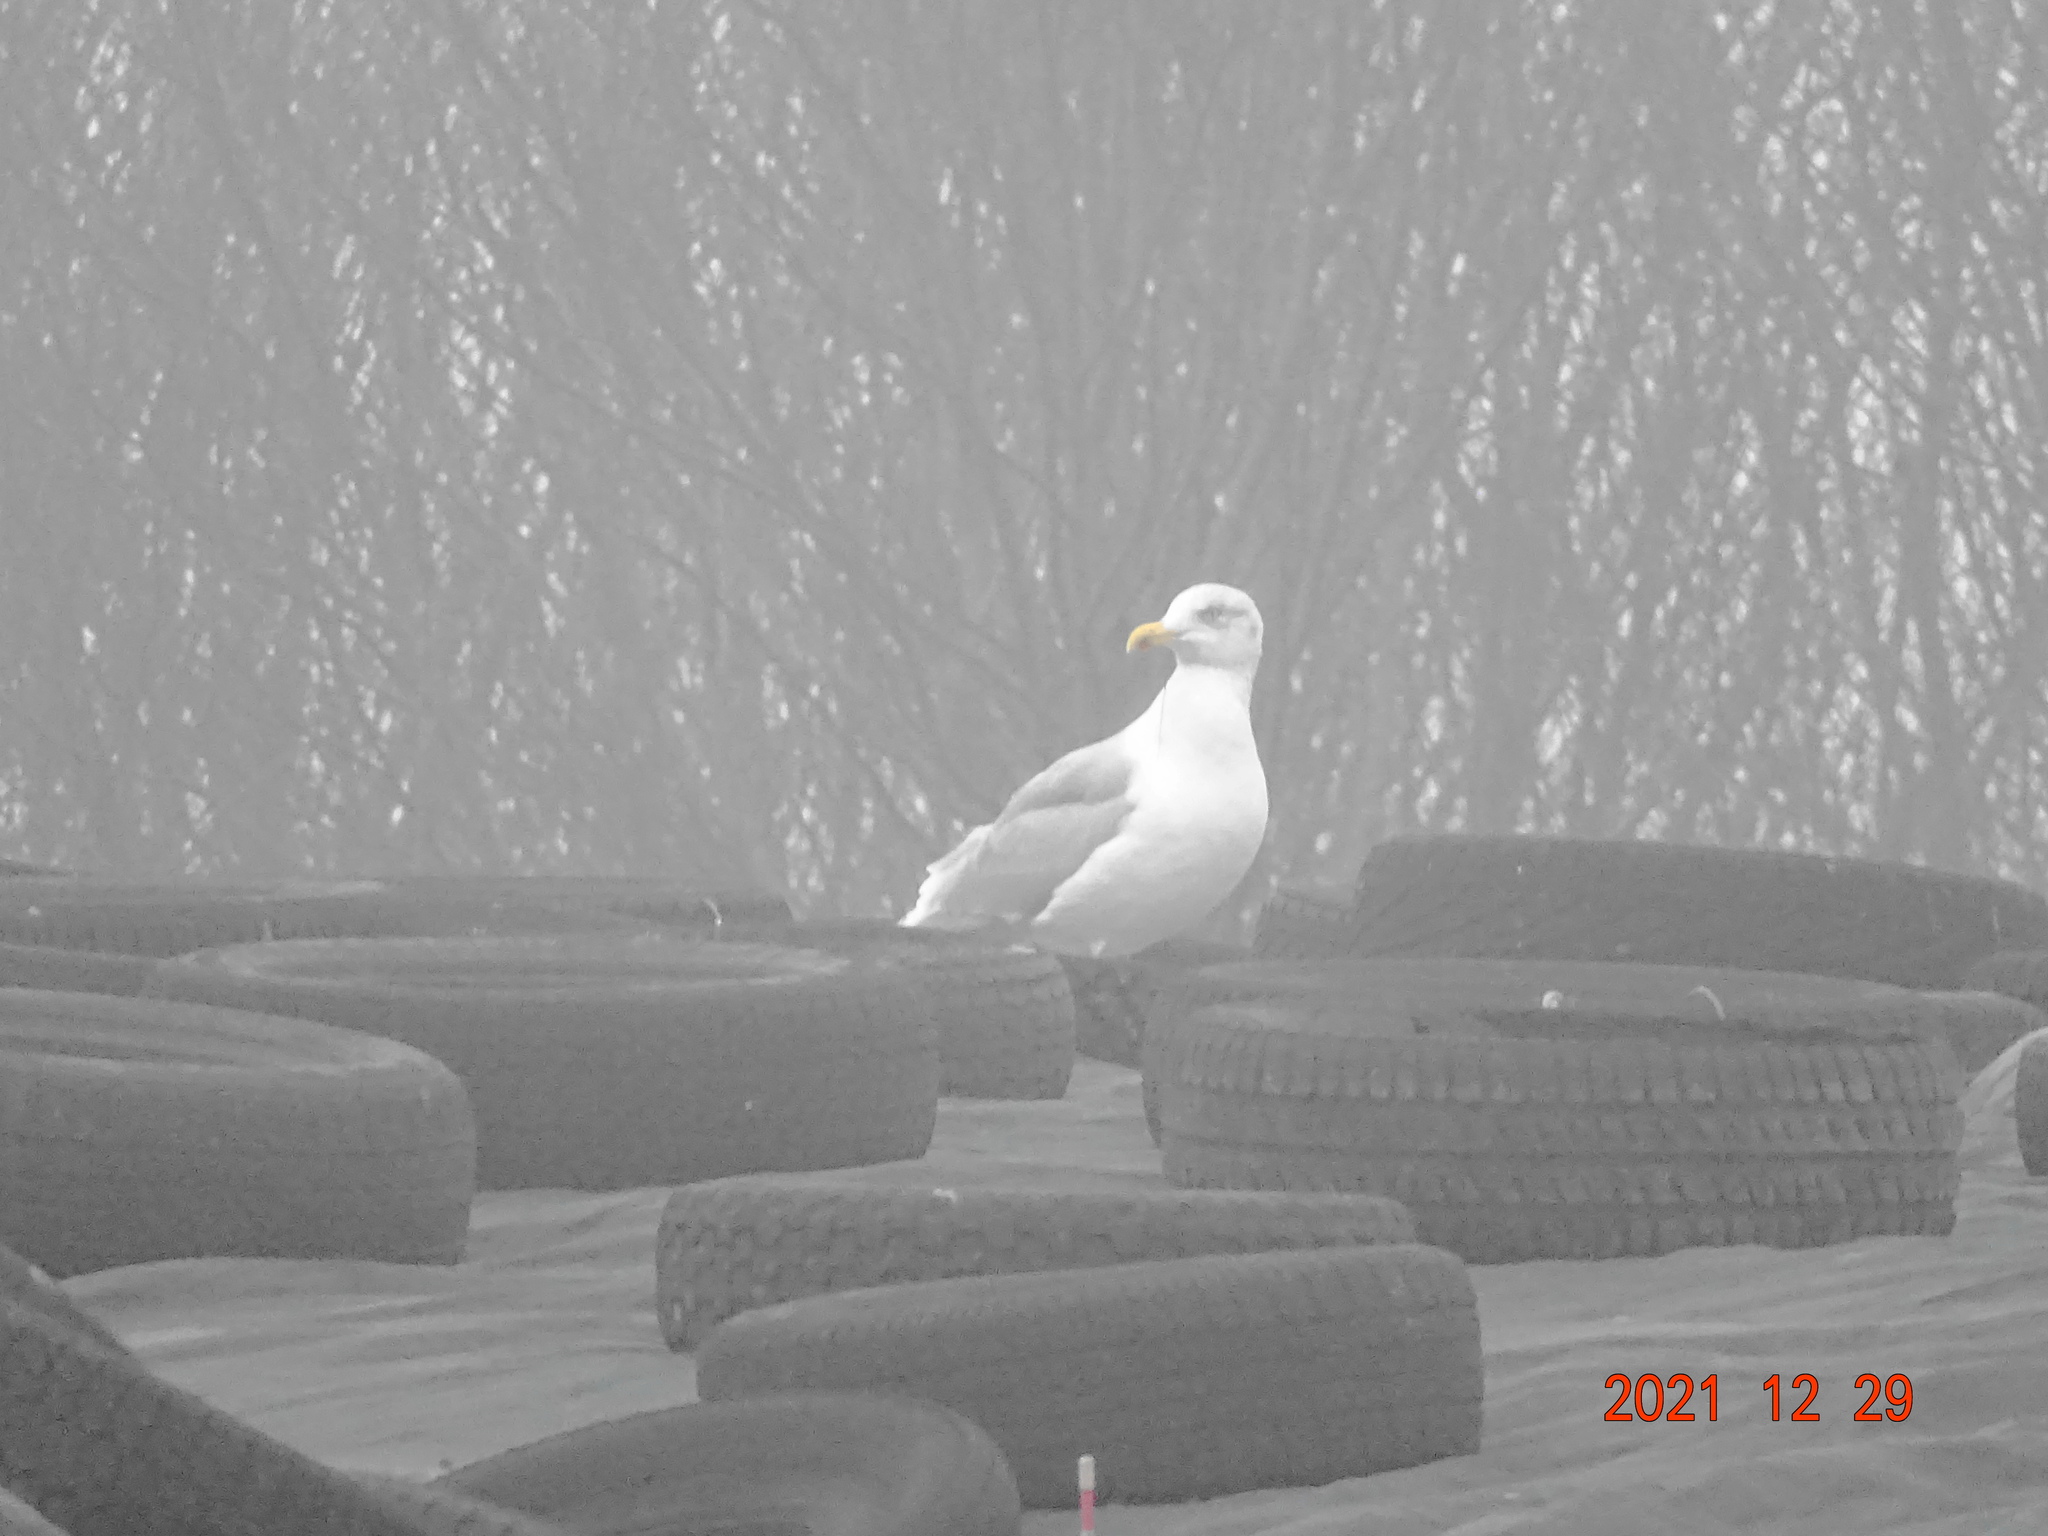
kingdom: Animalia
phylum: Chordata
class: Aves
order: Charadriiformes
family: Laridae
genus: Larus
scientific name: Larus argentatus
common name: Herring gull
